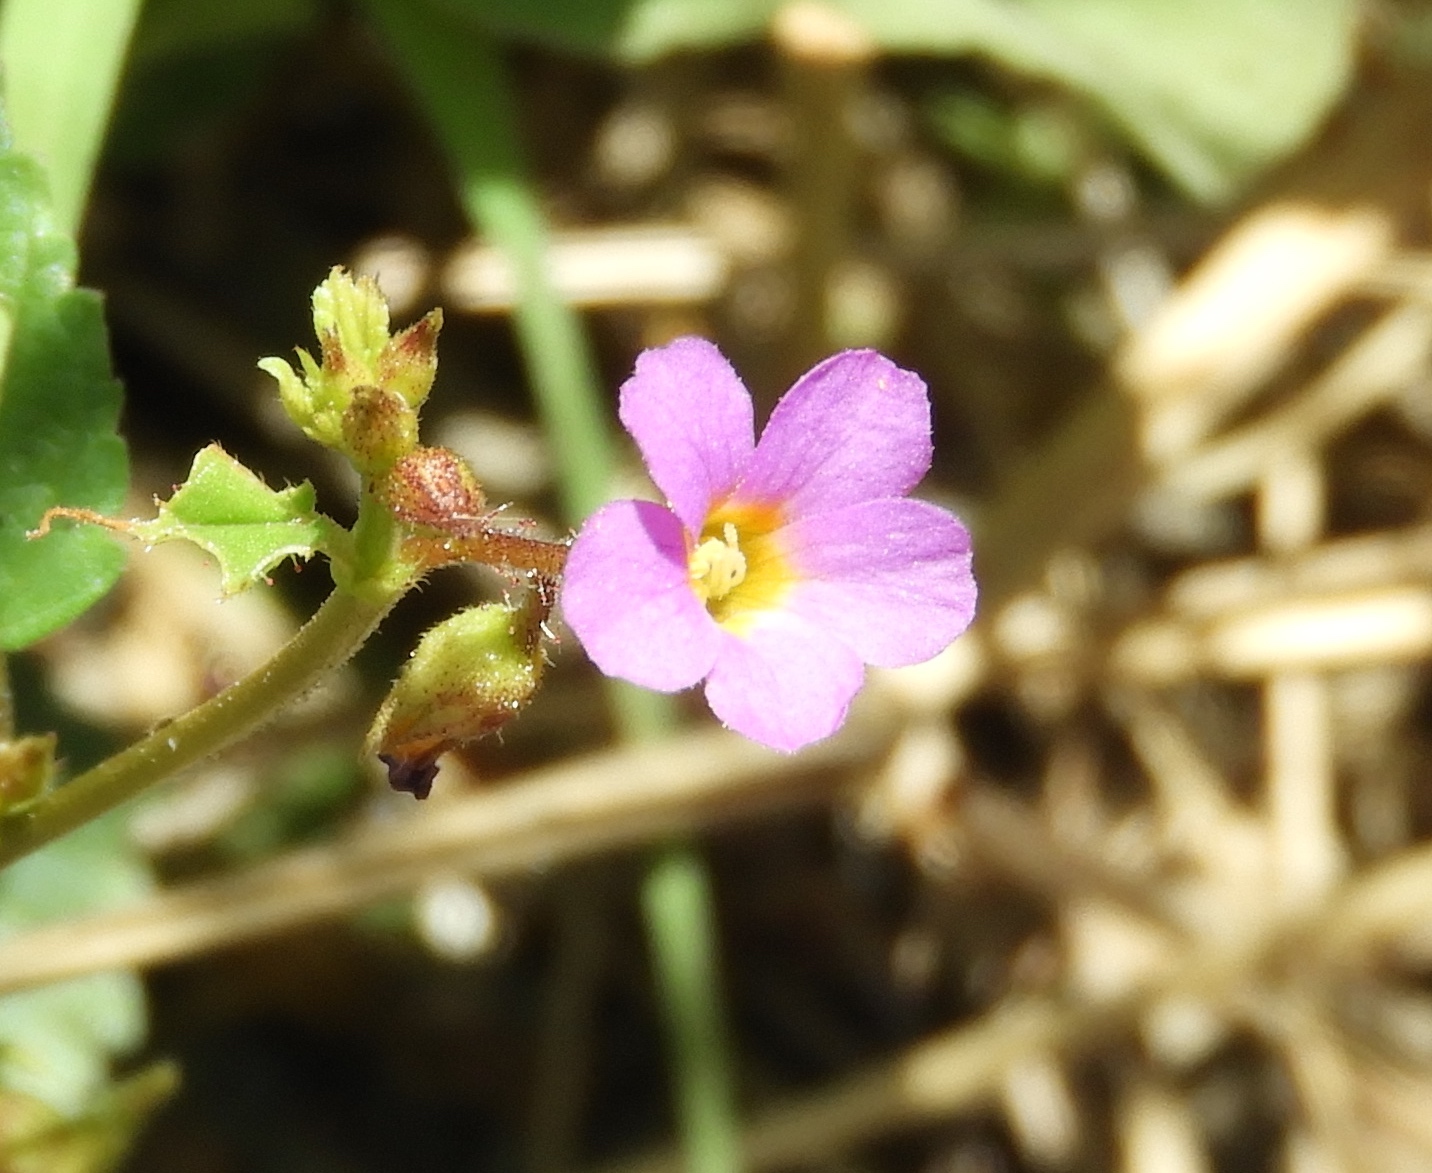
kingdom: Plantae
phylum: Tracheophyta
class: Magnoliopsida
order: Malvales
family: Malvaceae
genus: Melochia
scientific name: Melochia pyramidata
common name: Pyramidflower
